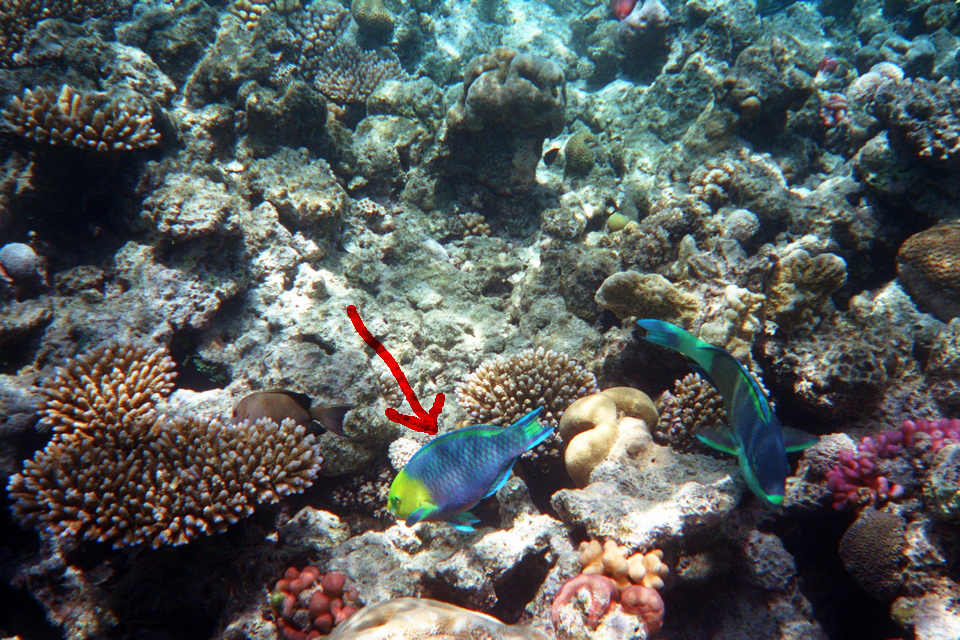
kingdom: Animalia
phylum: Chordata
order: Perciformes
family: Scaridae
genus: Scarus
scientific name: Scarus spinus
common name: Greensnout parrotfish
